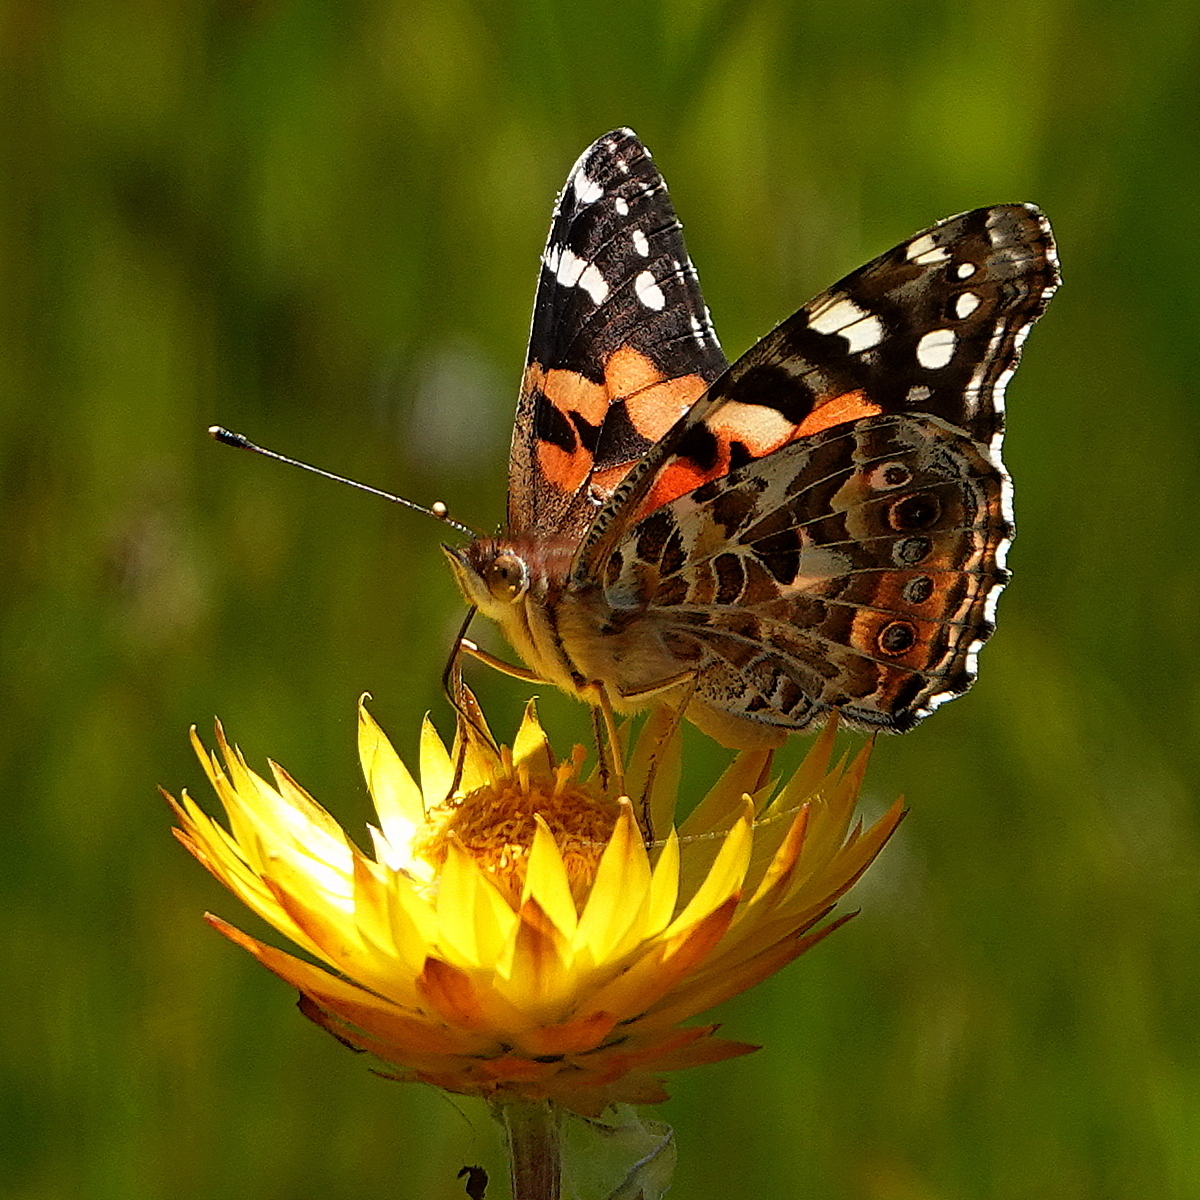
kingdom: Animalia
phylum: Arthropoda
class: Insecta
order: Lepidoptera
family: Nymphalidae
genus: Vanessa
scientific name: Vanessa kershawi
